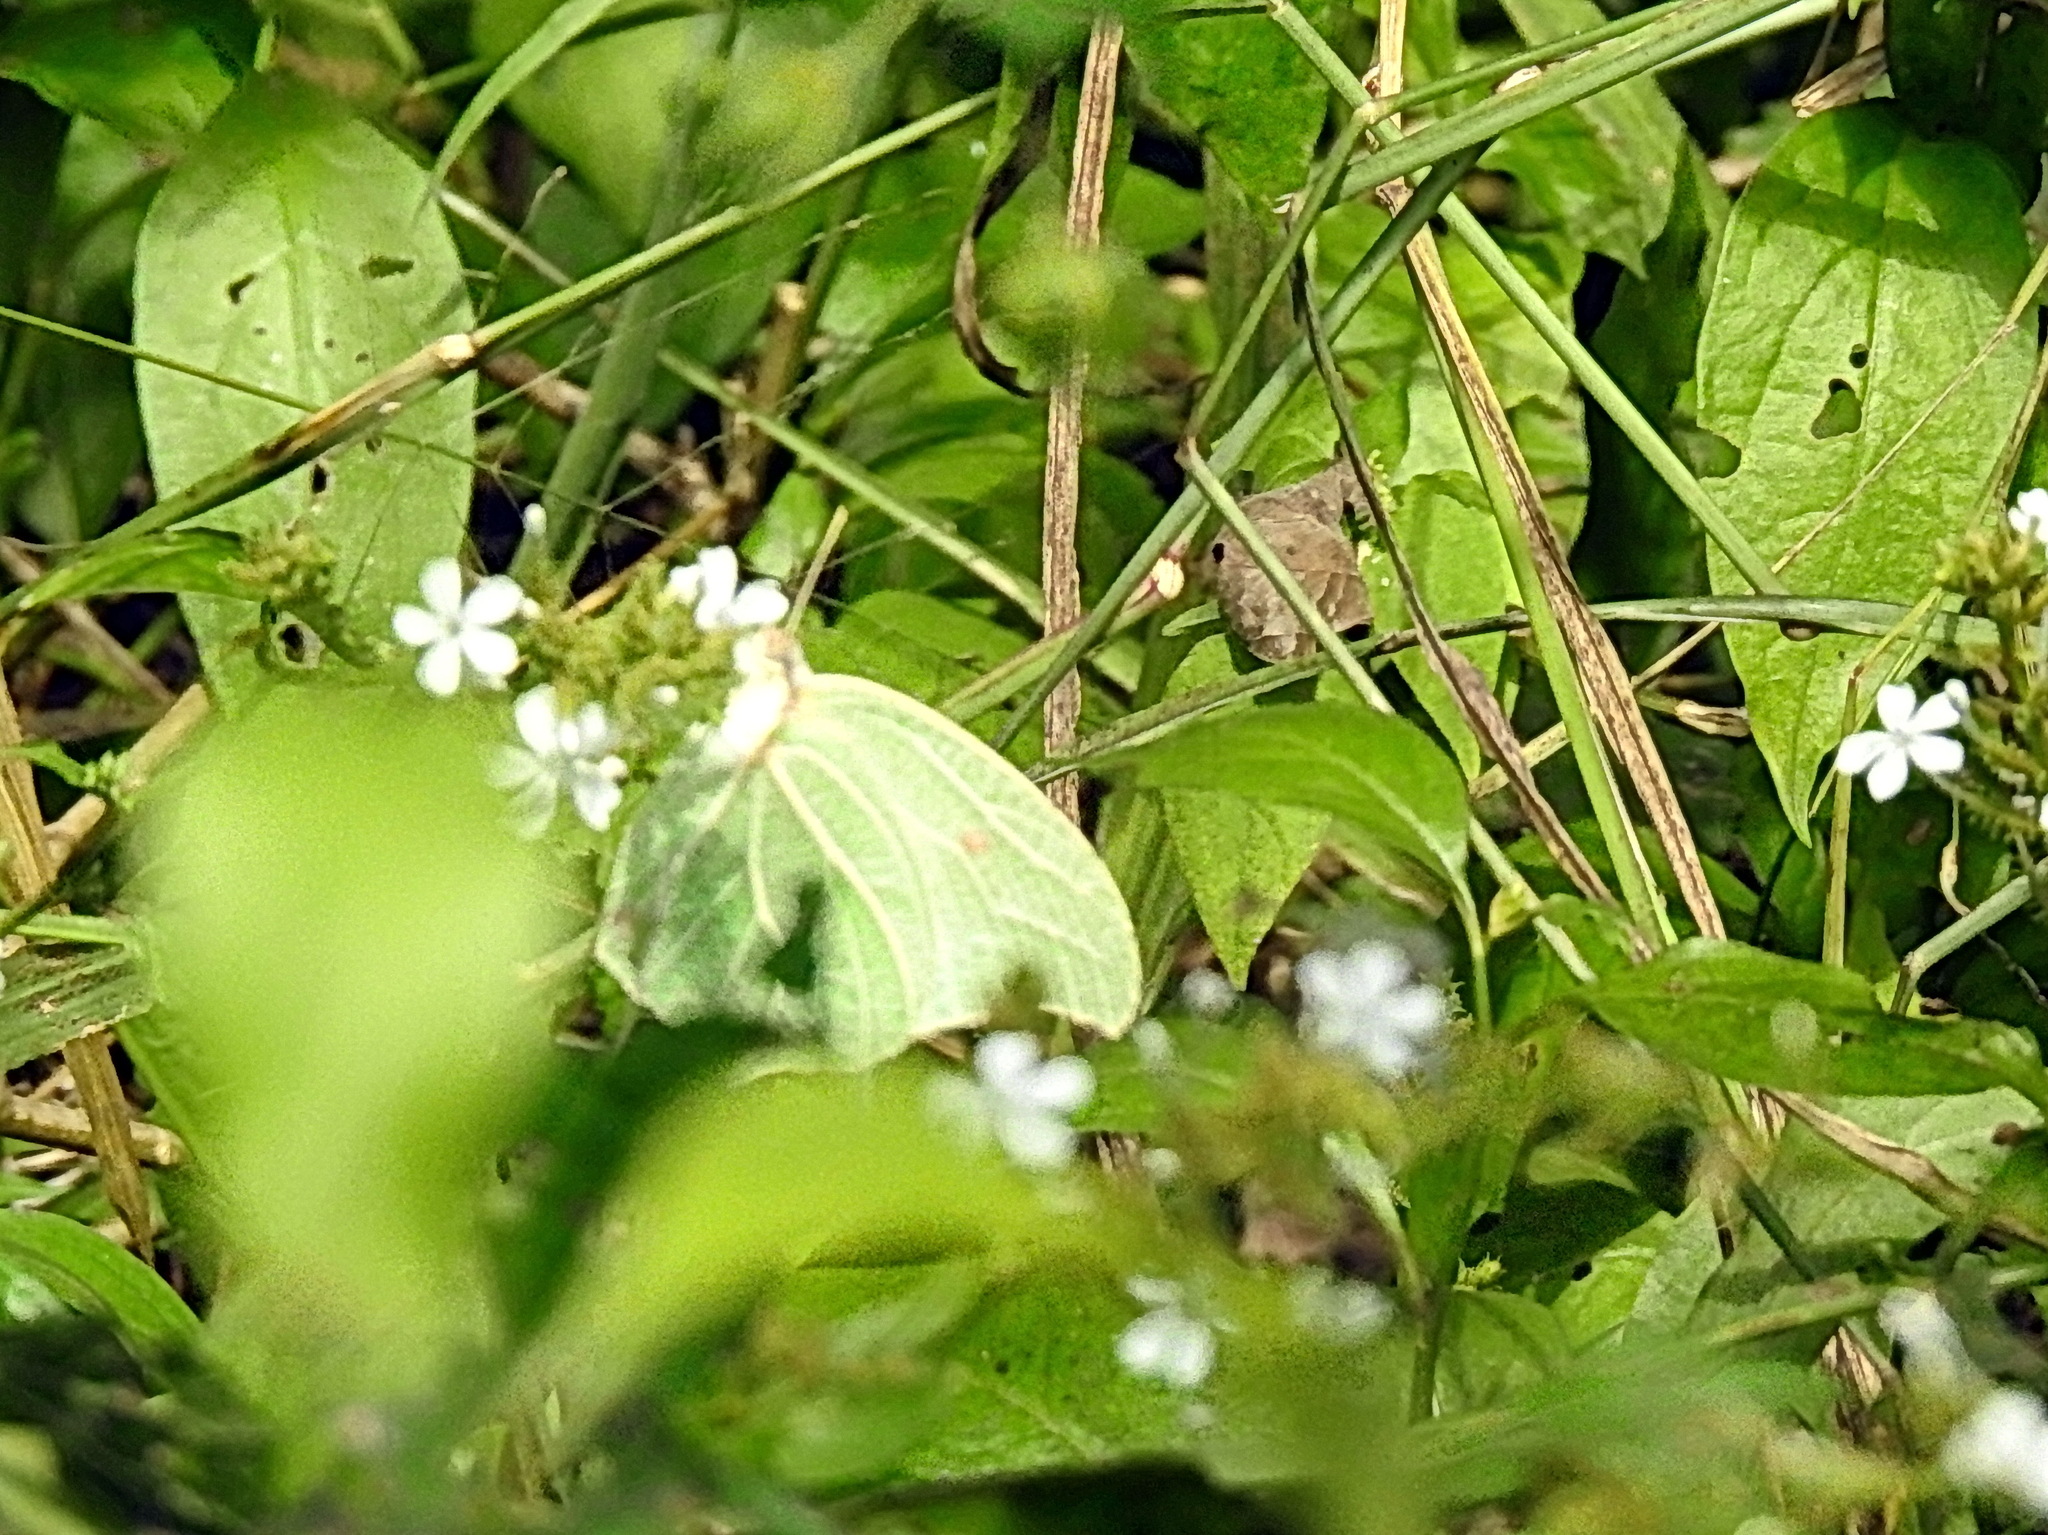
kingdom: Animalia
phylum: Arthropoda
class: Insecta
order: Lepidoptera
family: Pieridae
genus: Anteos
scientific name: Anteos clorinde
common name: White angled sulphur
